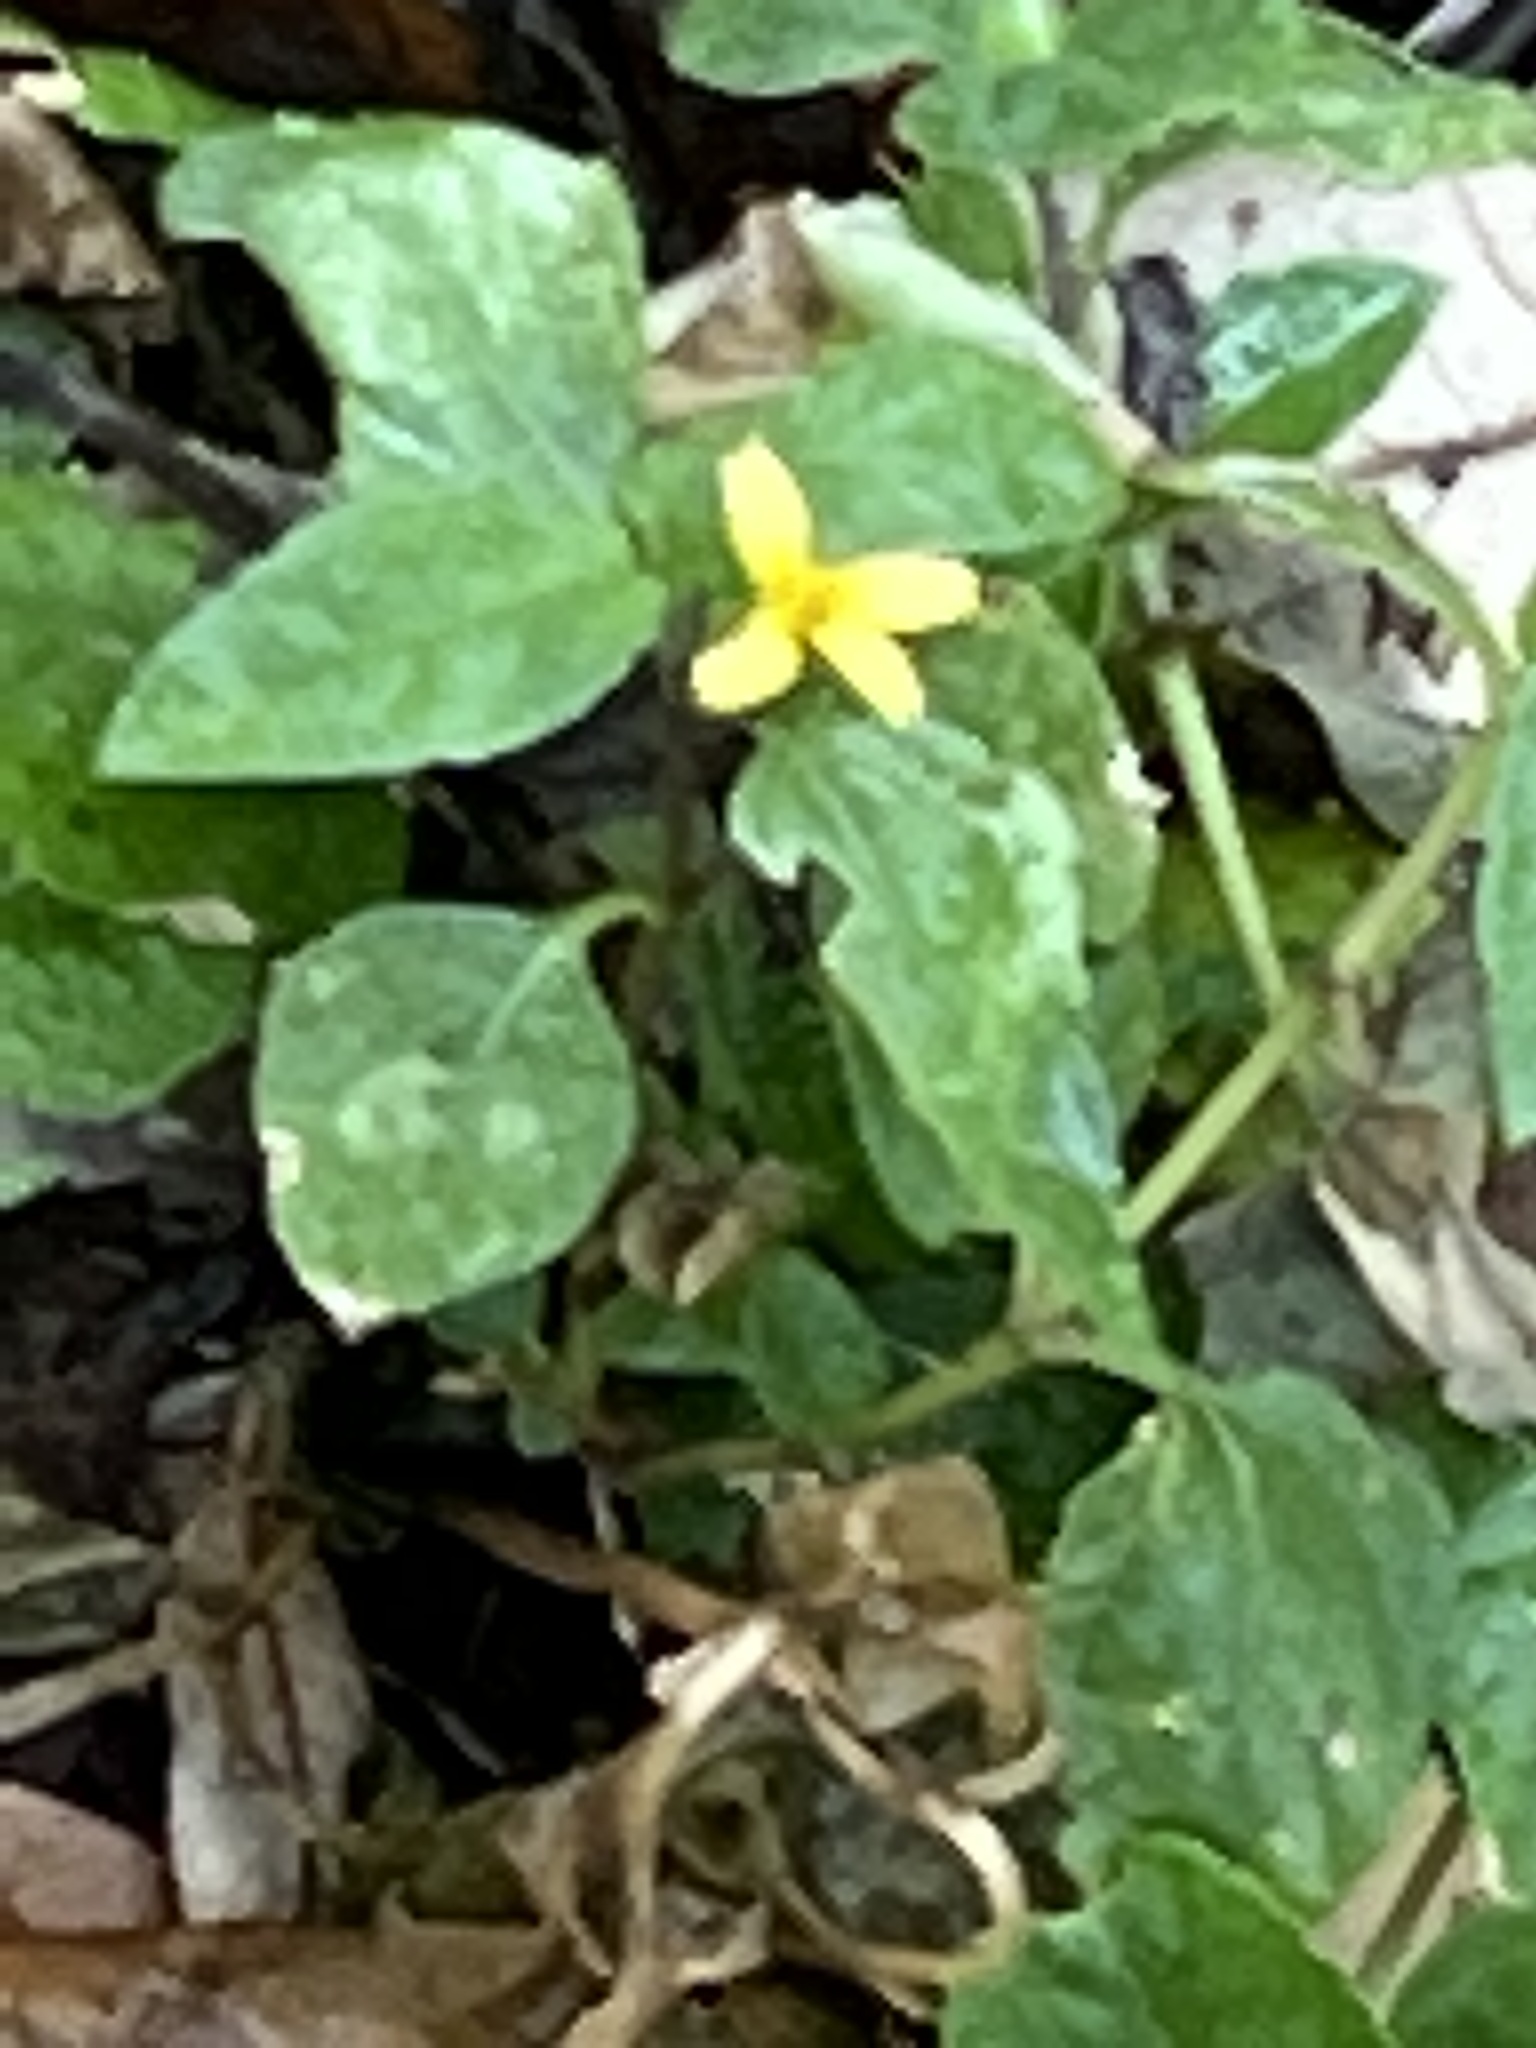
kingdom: Plantae
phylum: Tracheophyta
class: Magnoliopsida
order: Asterales
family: Asteraceae
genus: Calyptocarpus
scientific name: Calyptocarpus vialis
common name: Straggler daisy
